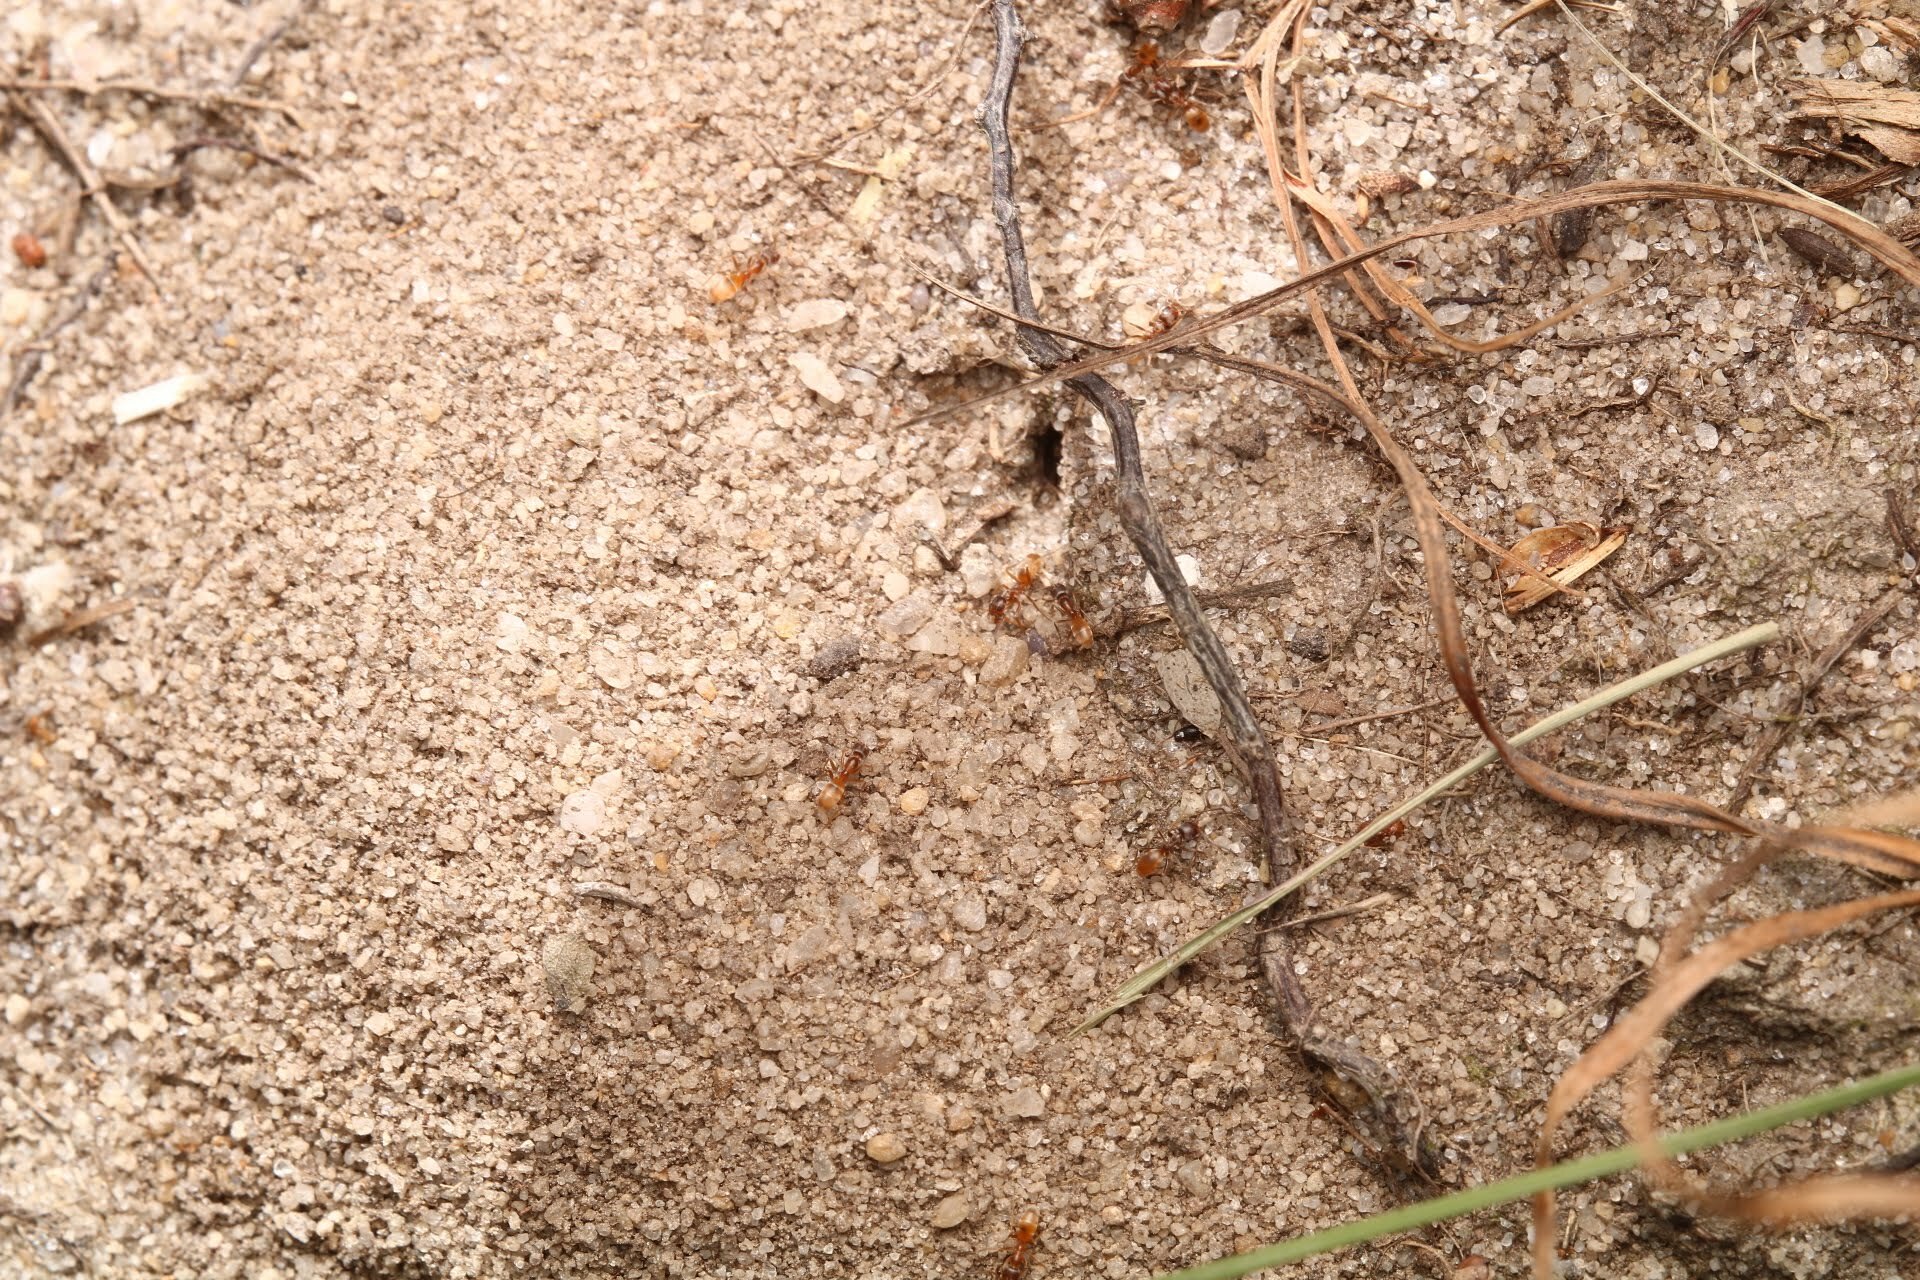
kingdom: Animalia
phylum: Arthropoda
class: Insecta
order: Hymenoptera
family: Formicidae
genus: Forelius
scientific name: Forelius pruinosus
